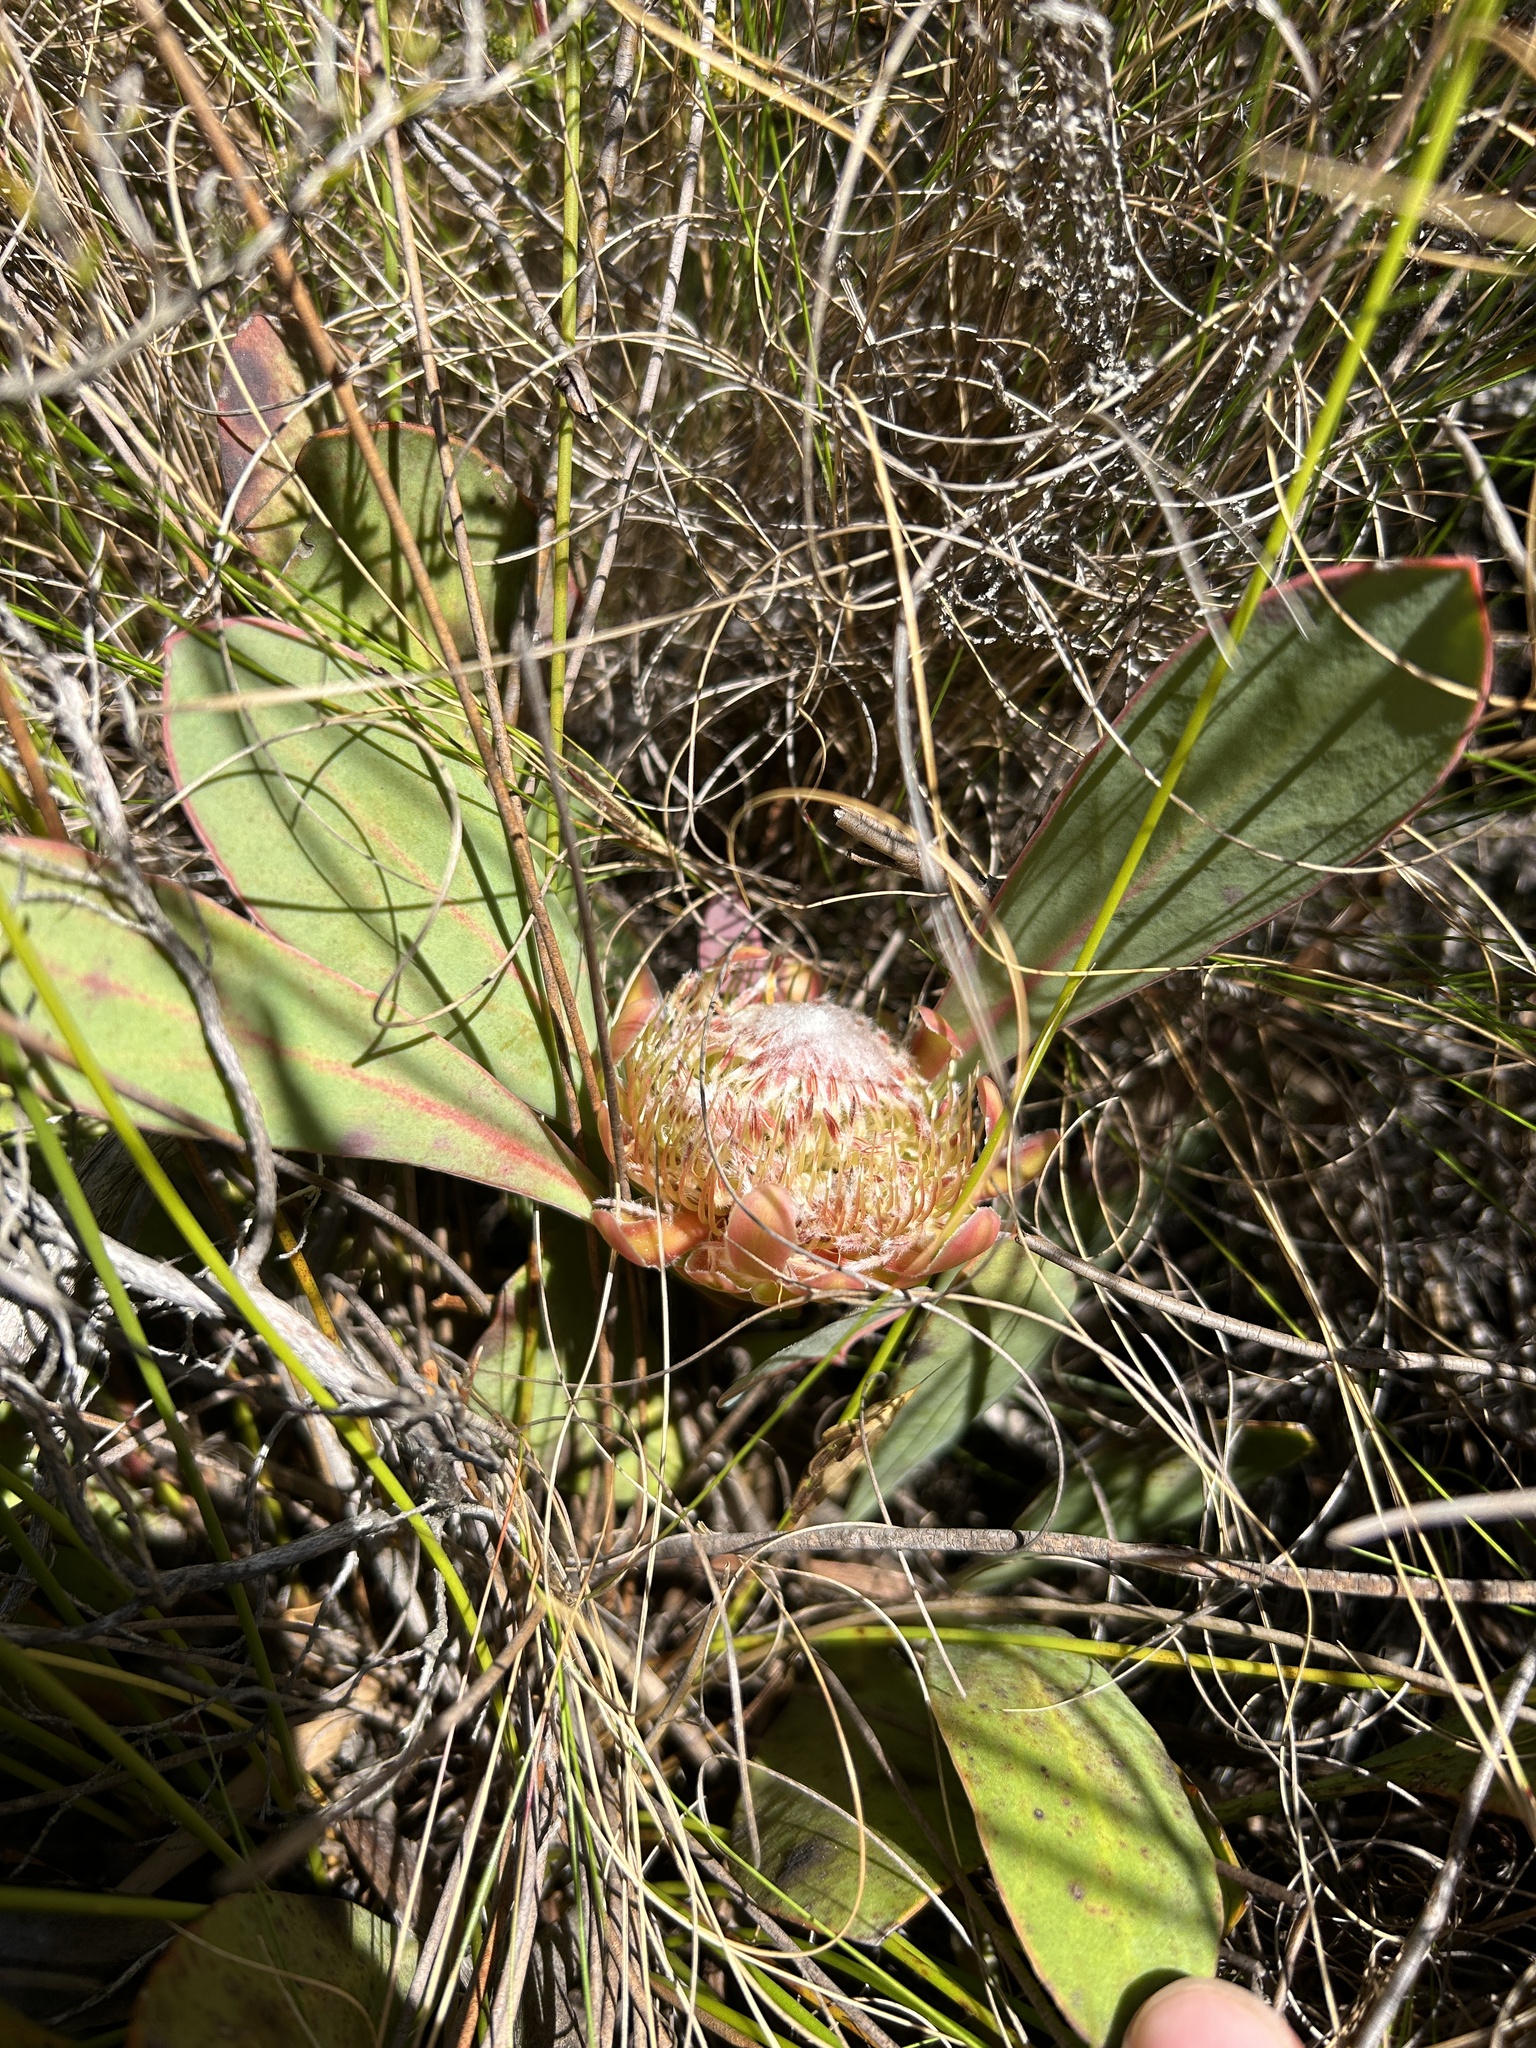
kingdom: Plantae
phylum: Tracheophyta
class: Magnoliopsida
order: Proteales
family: Proteaceae
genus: Protea
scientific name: Protea acaulos
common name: Common ground sugarbush
